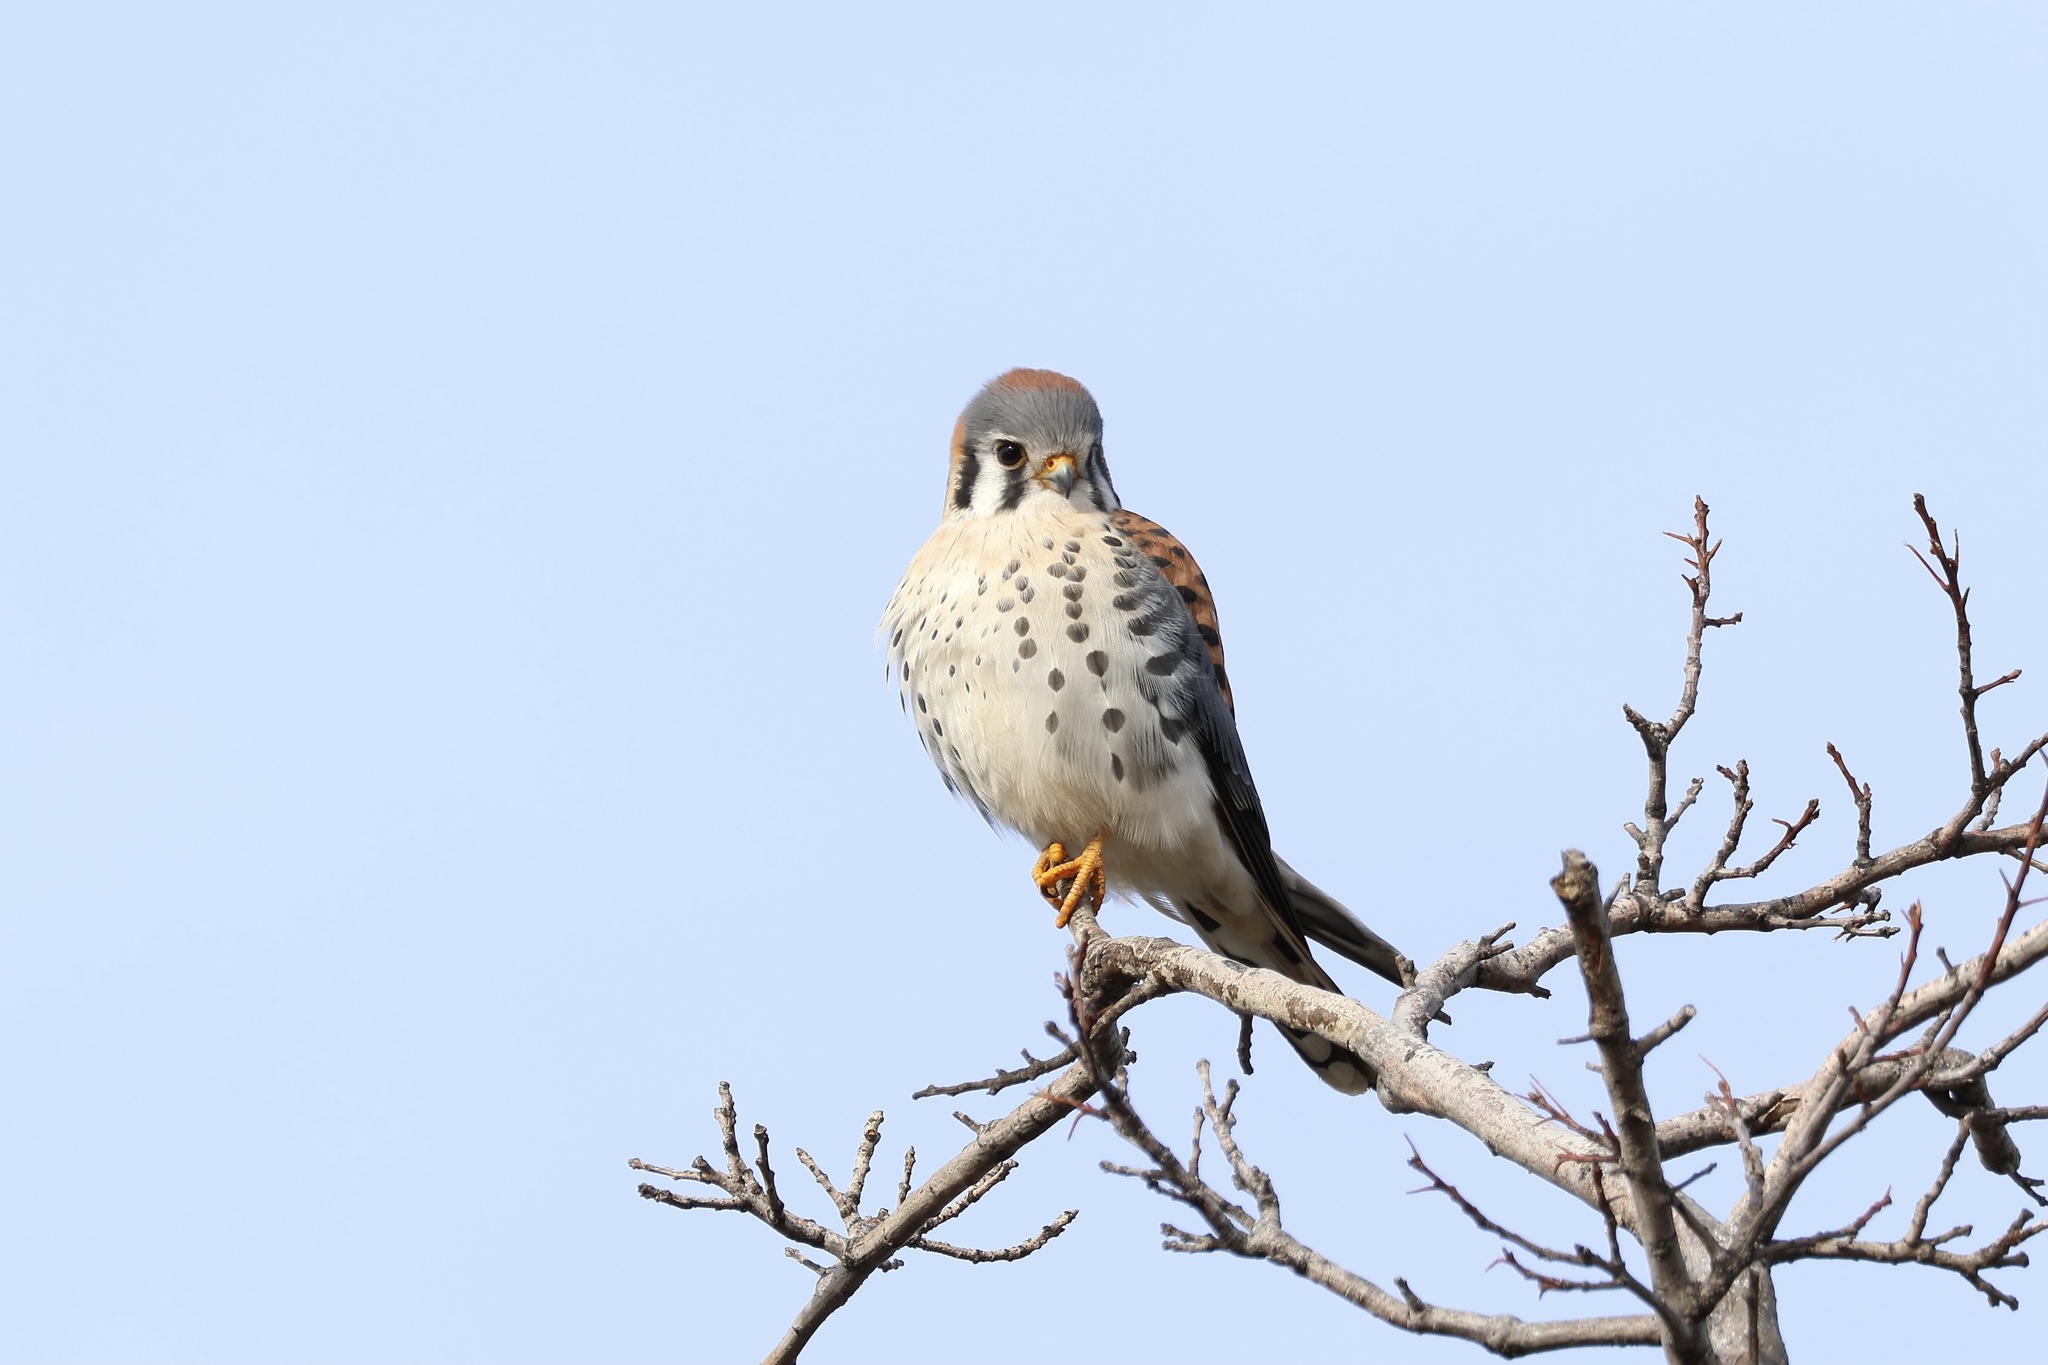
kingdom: Animalia
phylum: Chordata
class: Aves
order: Falconiformes
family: Falconidae
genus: Falco
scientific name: Falco sparverius
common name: American kestrel
